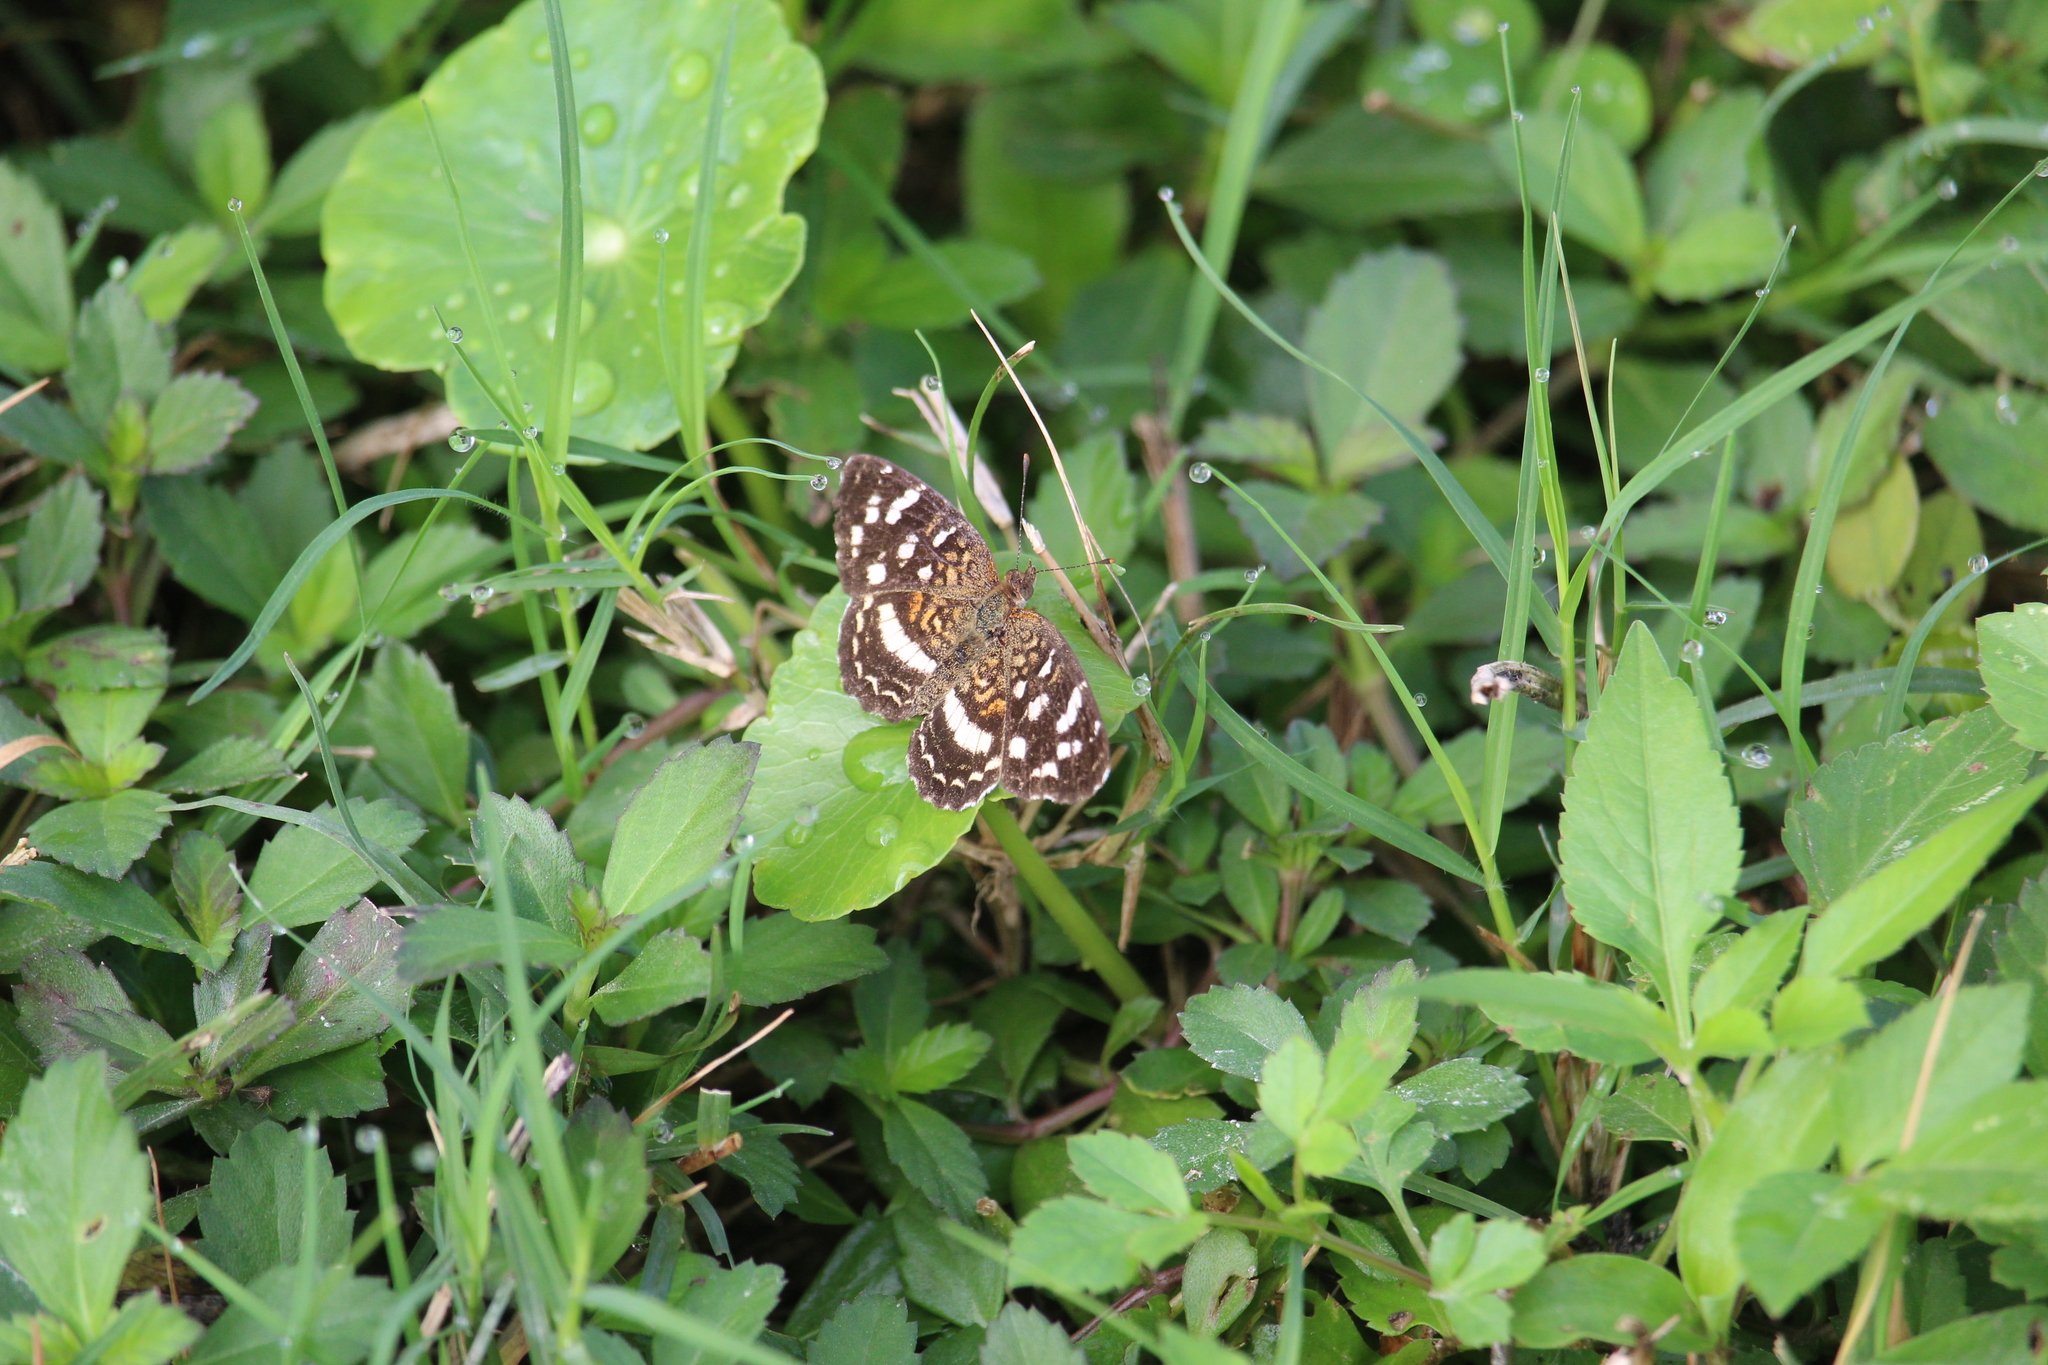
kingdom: Animalia
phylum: Arthropoda
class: Insecta
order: Lepidoptera
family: Nymphalidae
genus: Anthanassa
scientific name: Anthanassa tulcis
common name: Pale-banded crescent
